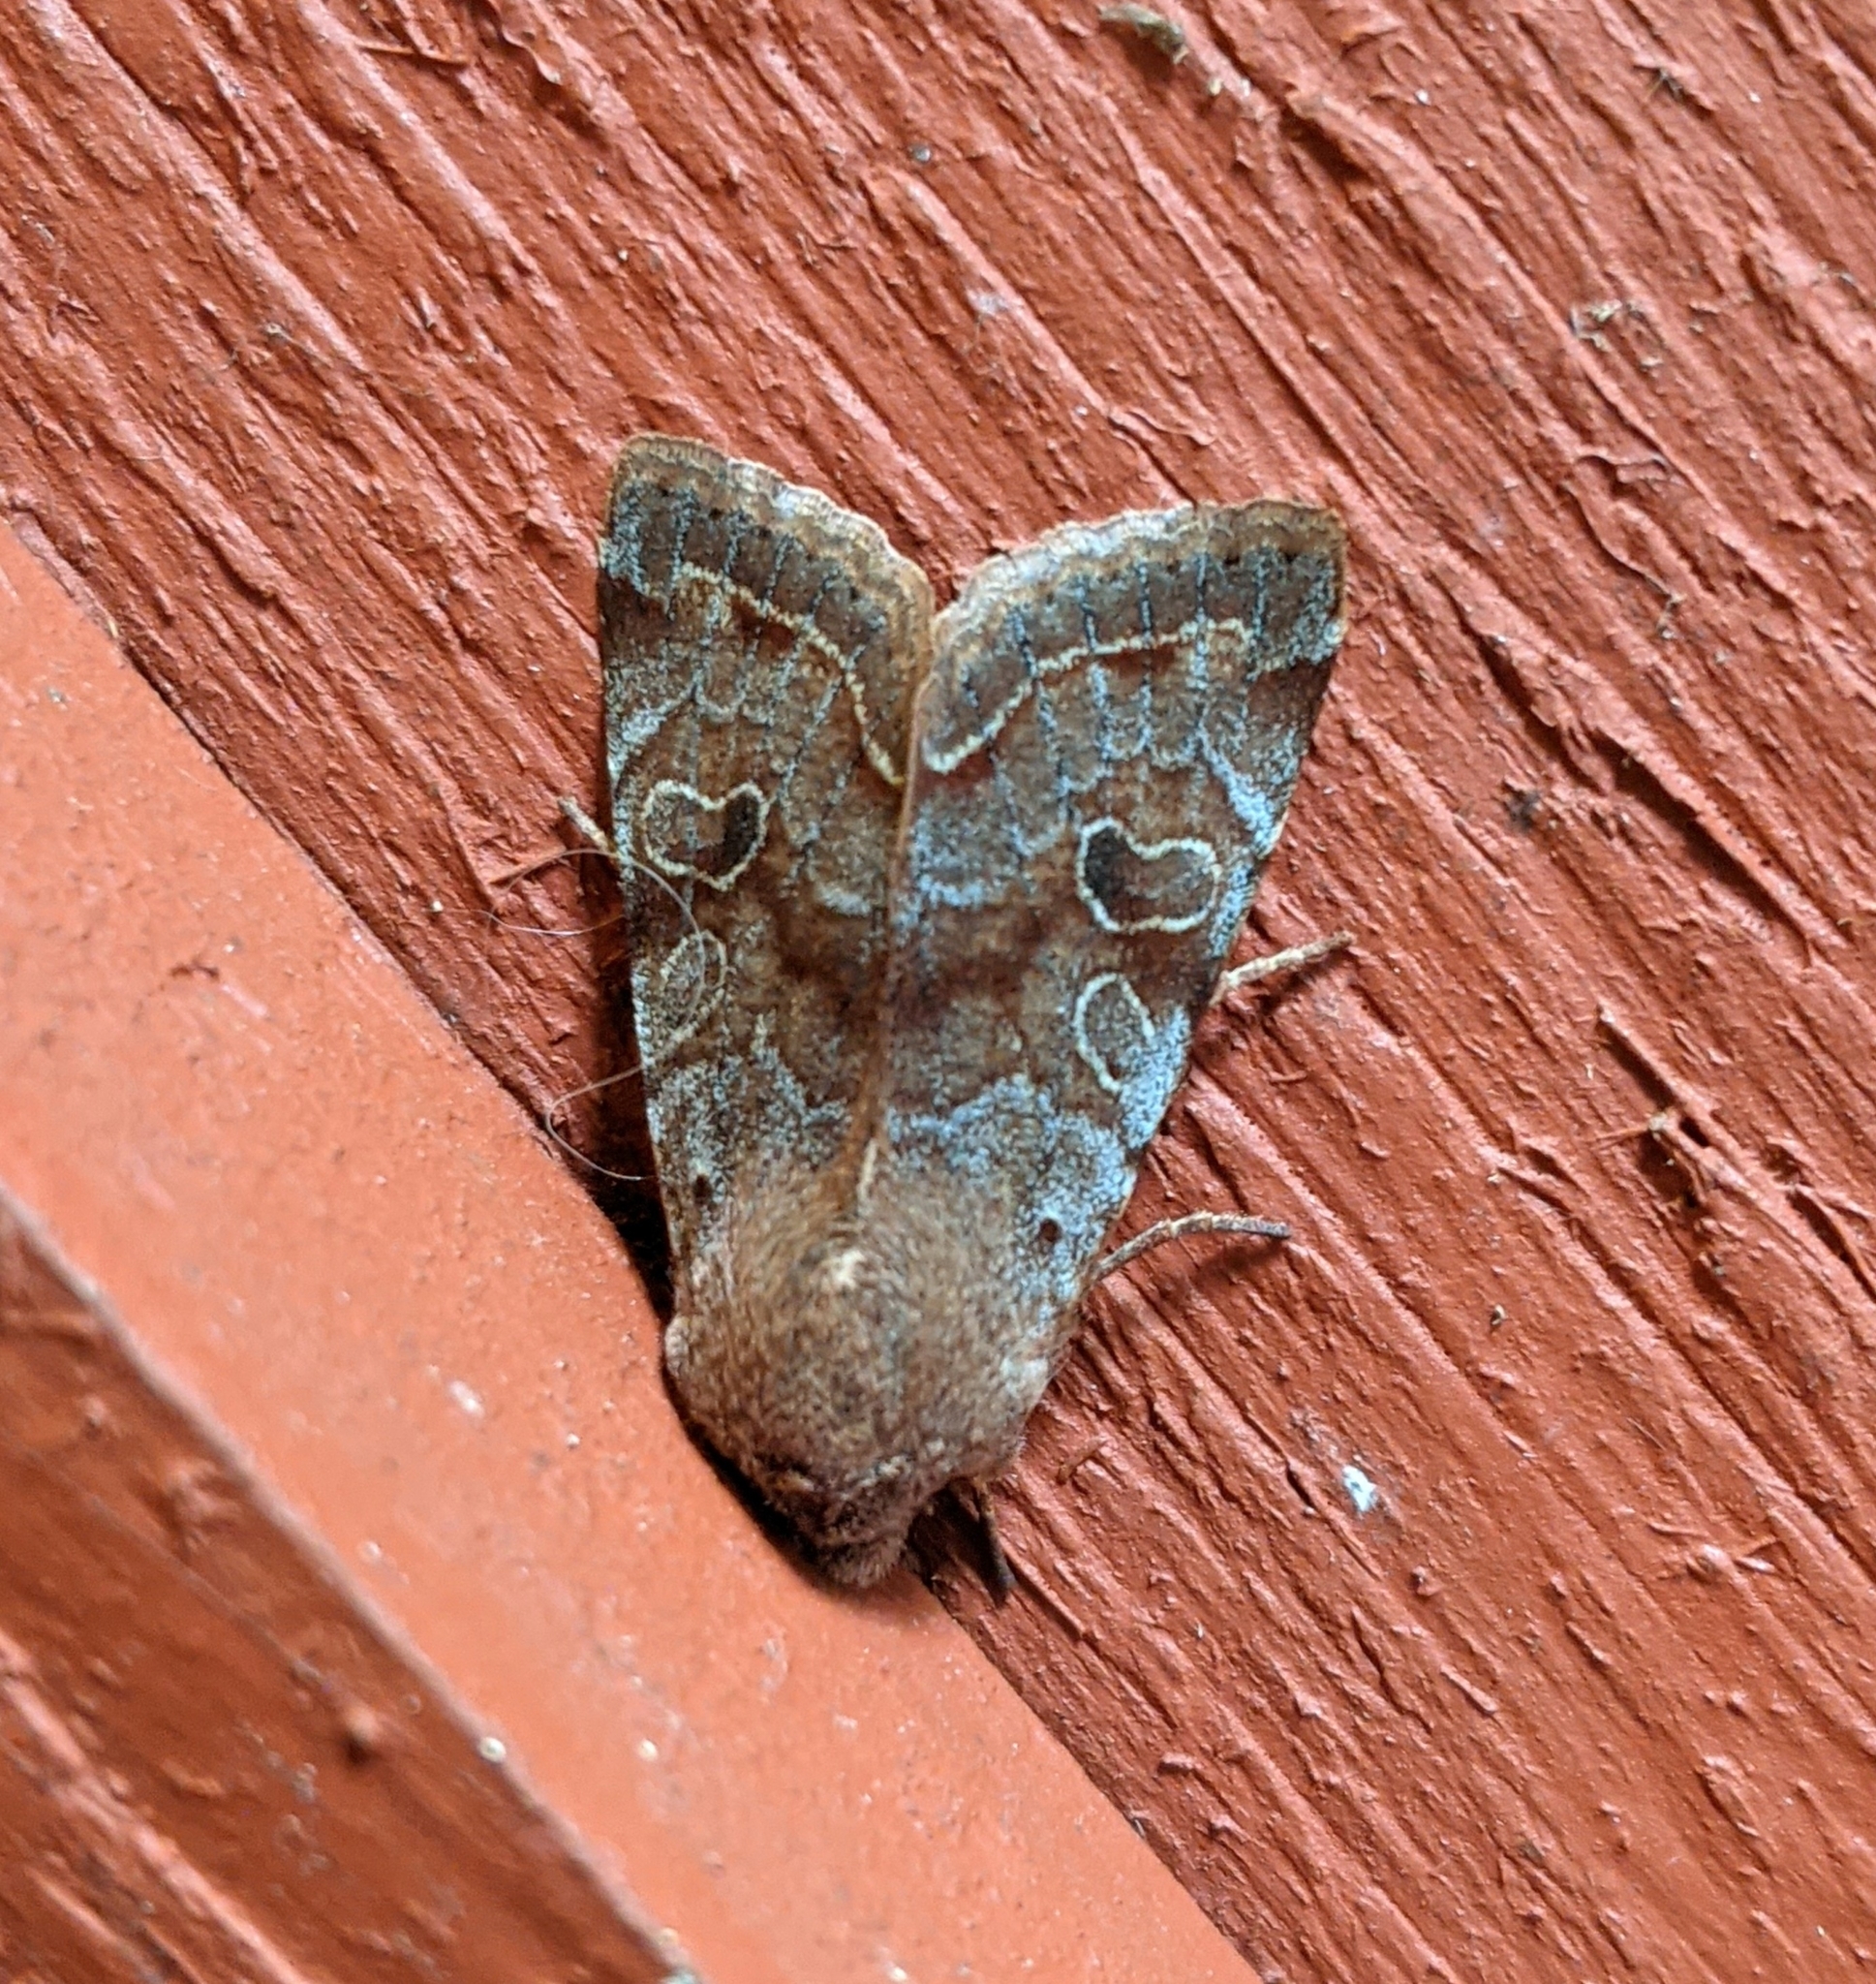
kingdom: Animalia
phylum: Arthropoda
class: Insecta
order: Lepidoptera
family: Noctuidae
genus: Orthosia
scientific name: Orthosia hibisci
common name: Green fruitworm
